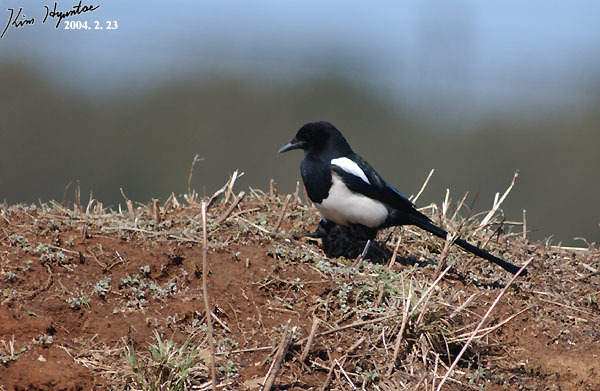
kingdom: Animalia
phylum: Chordata
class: Aves
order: Passeriformes
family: Corvidae
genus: Pica
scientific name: Pica serica
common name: Oriental magpie
